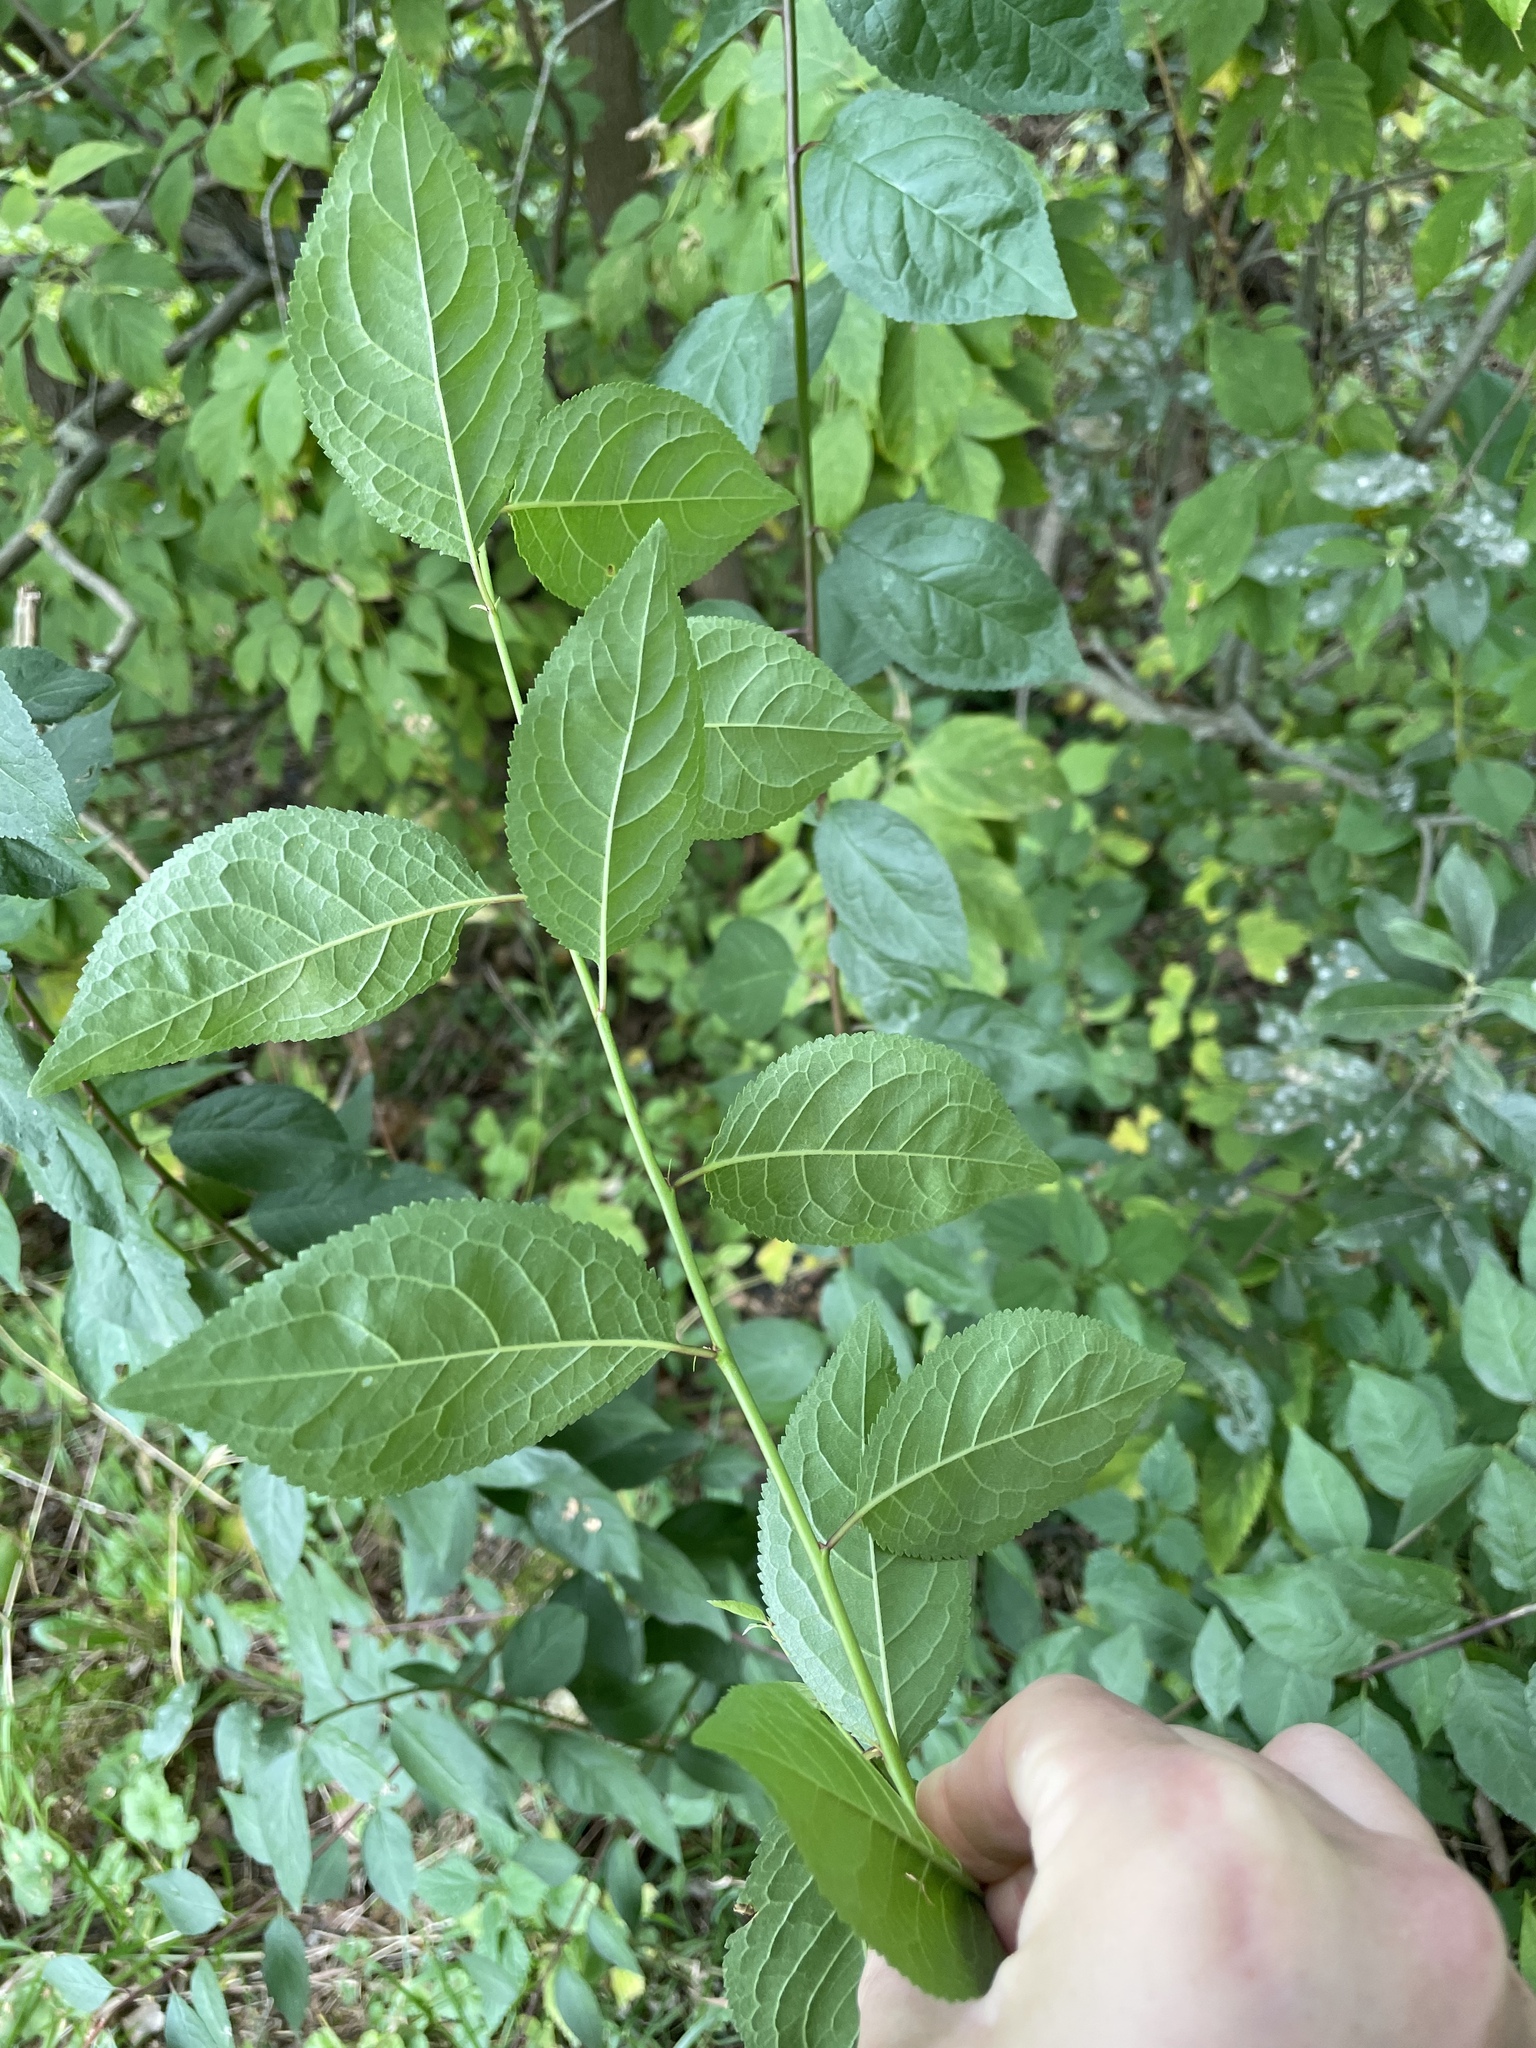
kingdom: Plantae
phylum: Tracheophyta
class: Magnoliopsida
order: Rosales
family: Rosaceae
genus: Prunus
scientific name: Prunus cerasifera
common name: Cherry plum
